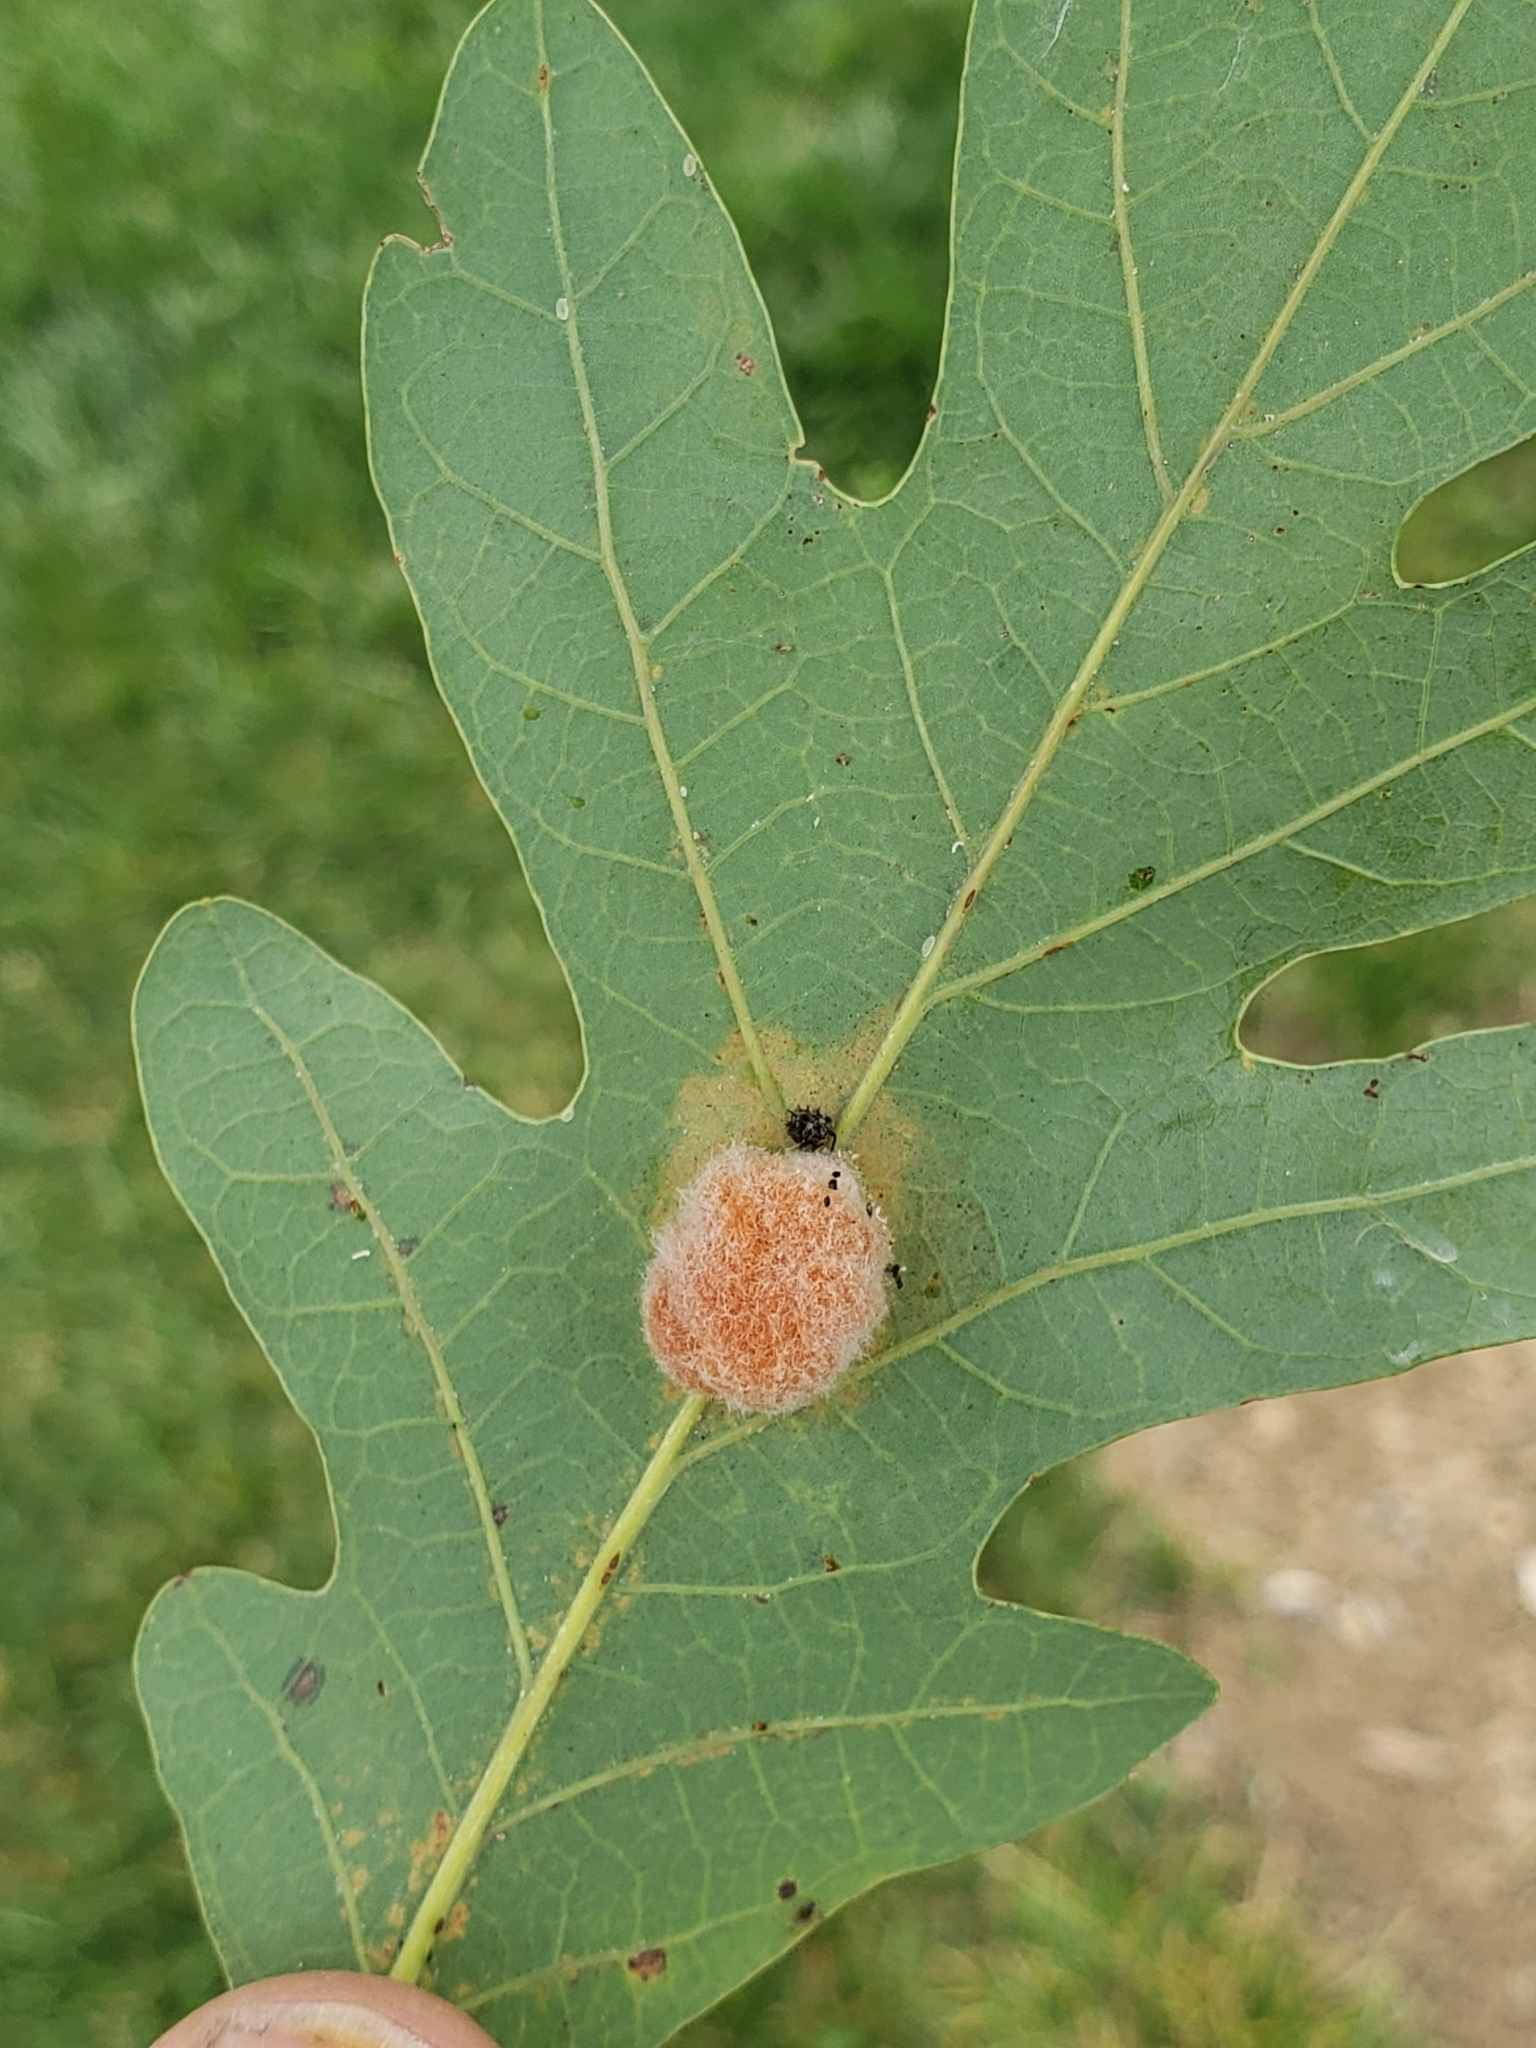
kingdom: Animalia
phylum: Arthropoda
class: Insecta
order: Hymenoptera
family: Cynipidae
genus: Andricus
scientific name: Andricus quercusflocci
